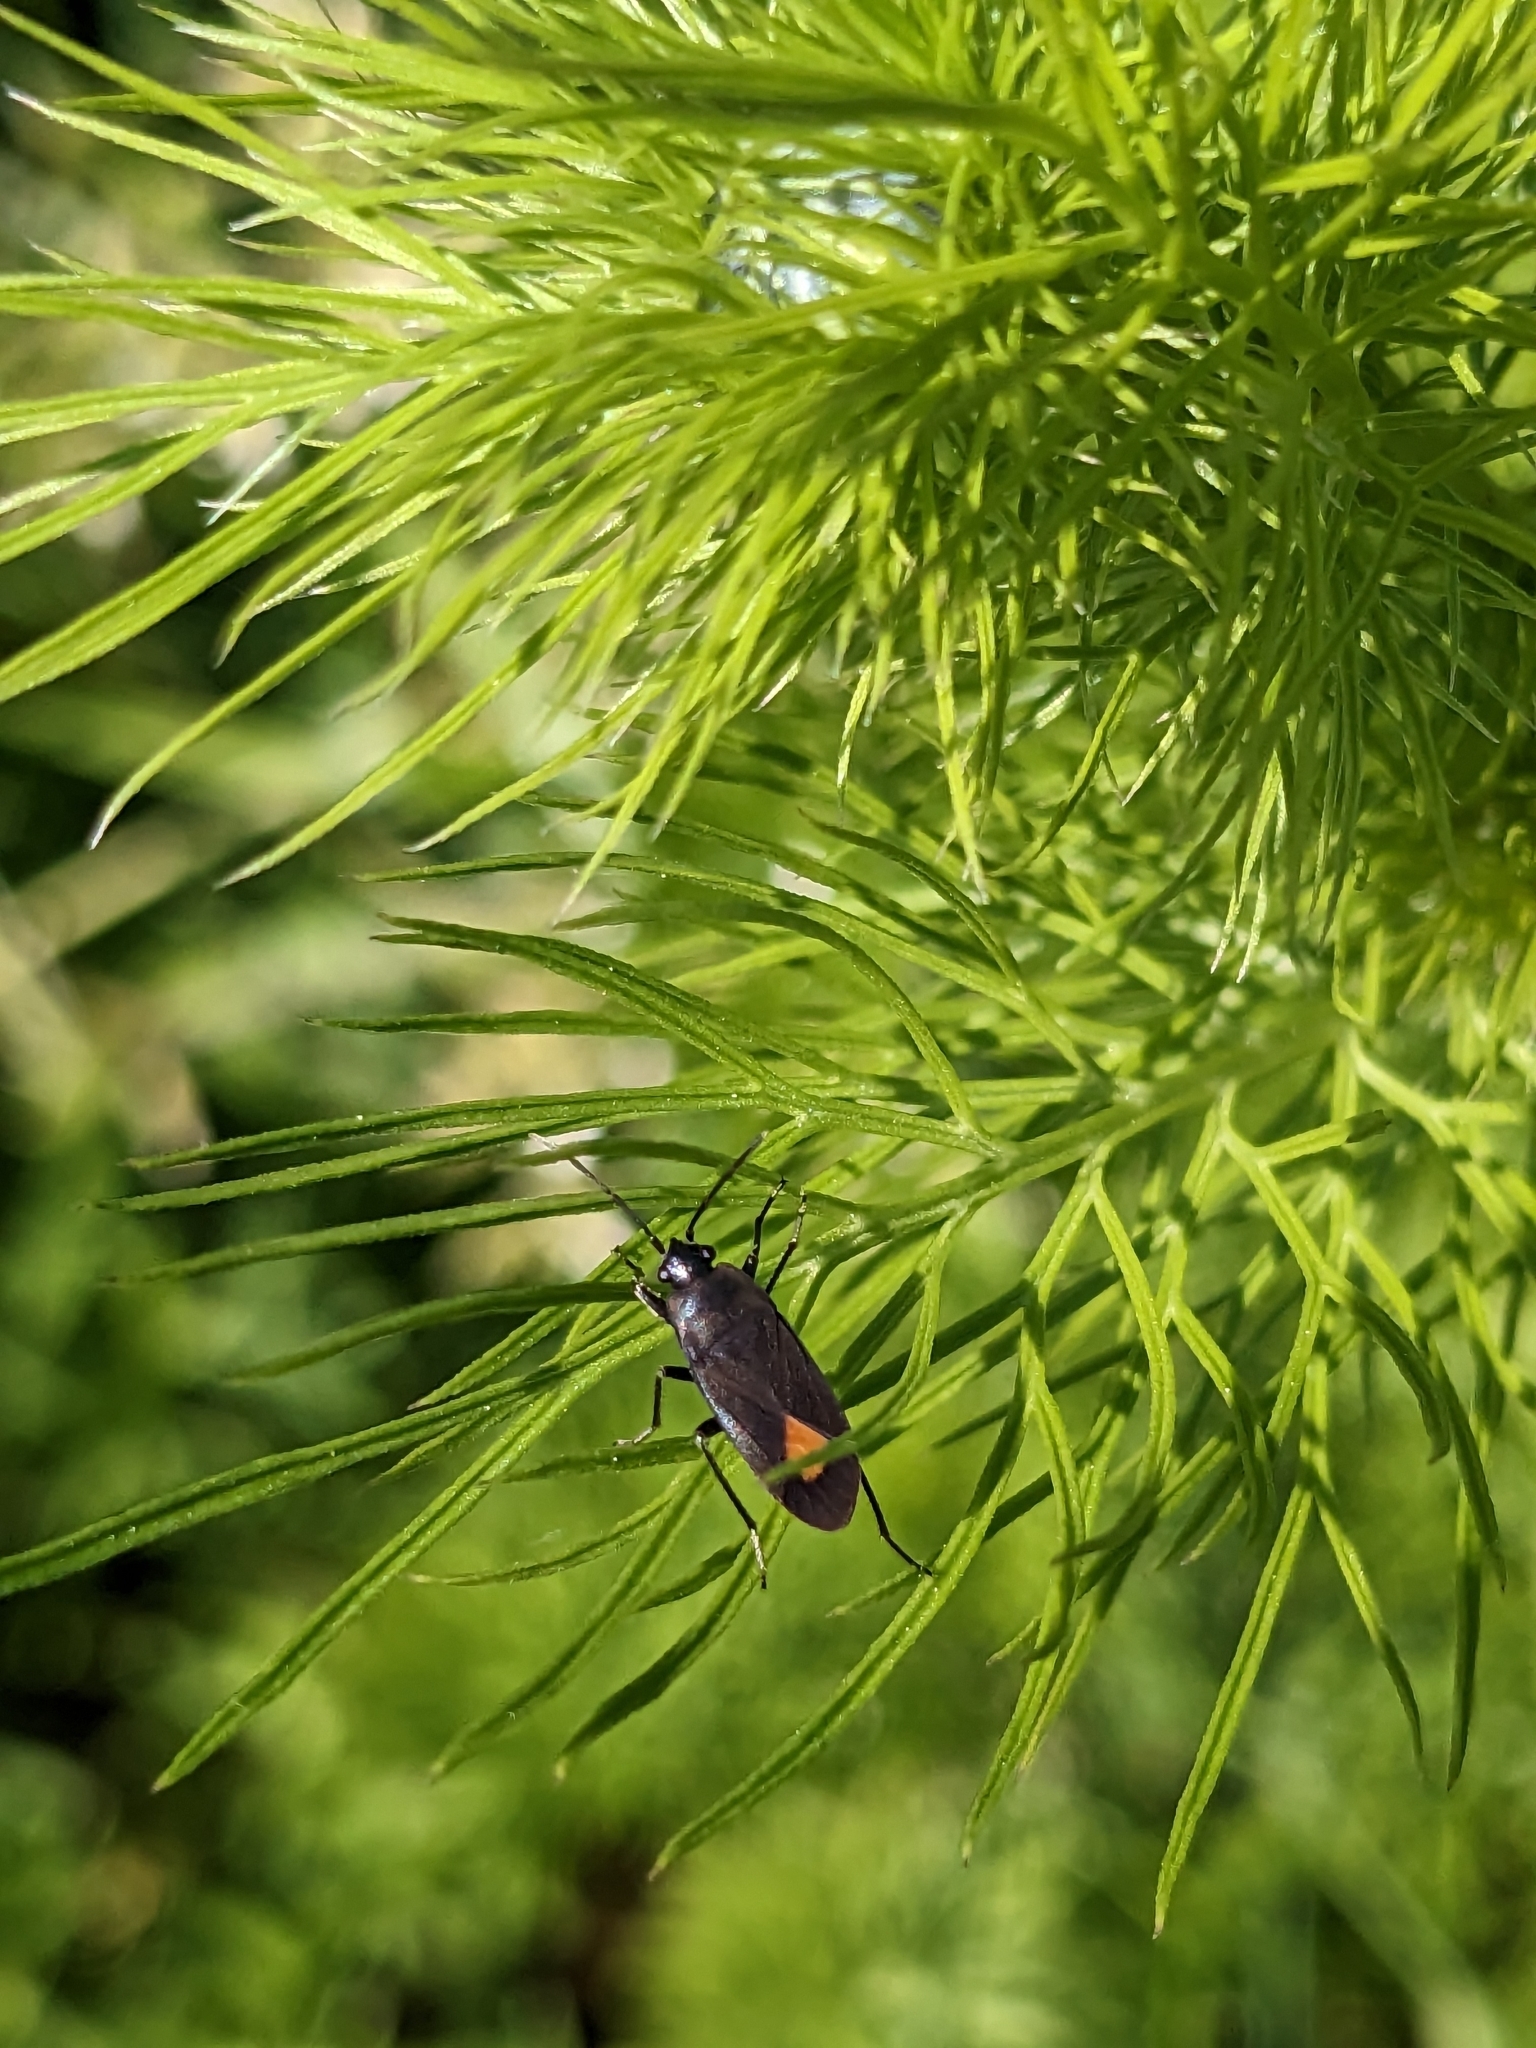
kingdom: Animalia
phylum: Arthropoda
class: Insecta
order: Hemiptera
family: Rhyparochromidae
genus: Aphanus
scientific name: Aphanus rolandri
